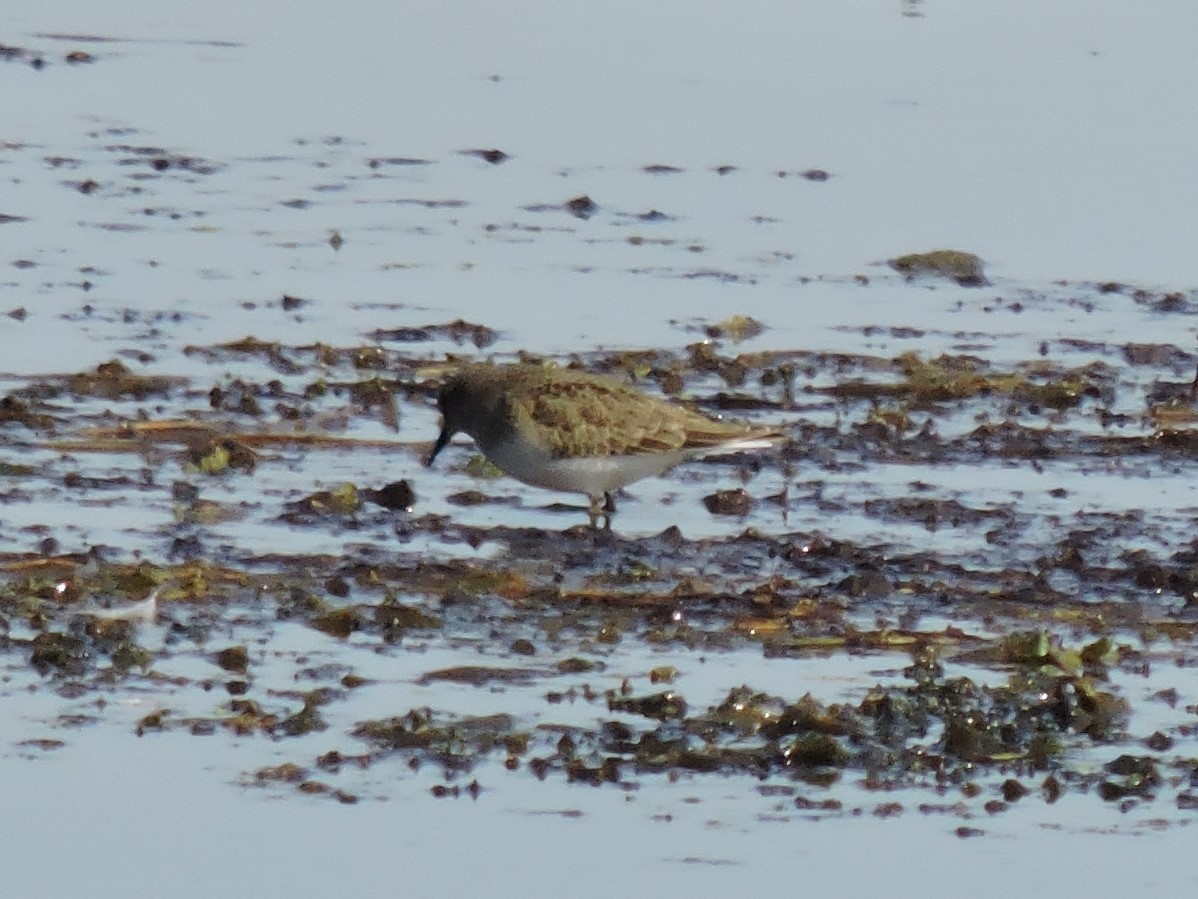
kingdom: Animalia
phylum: Chordata
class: Aves
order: Charadriiformes
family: Scolopacidae
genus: Calidris
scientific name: Calidris temminckii
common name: Temminck's stint
